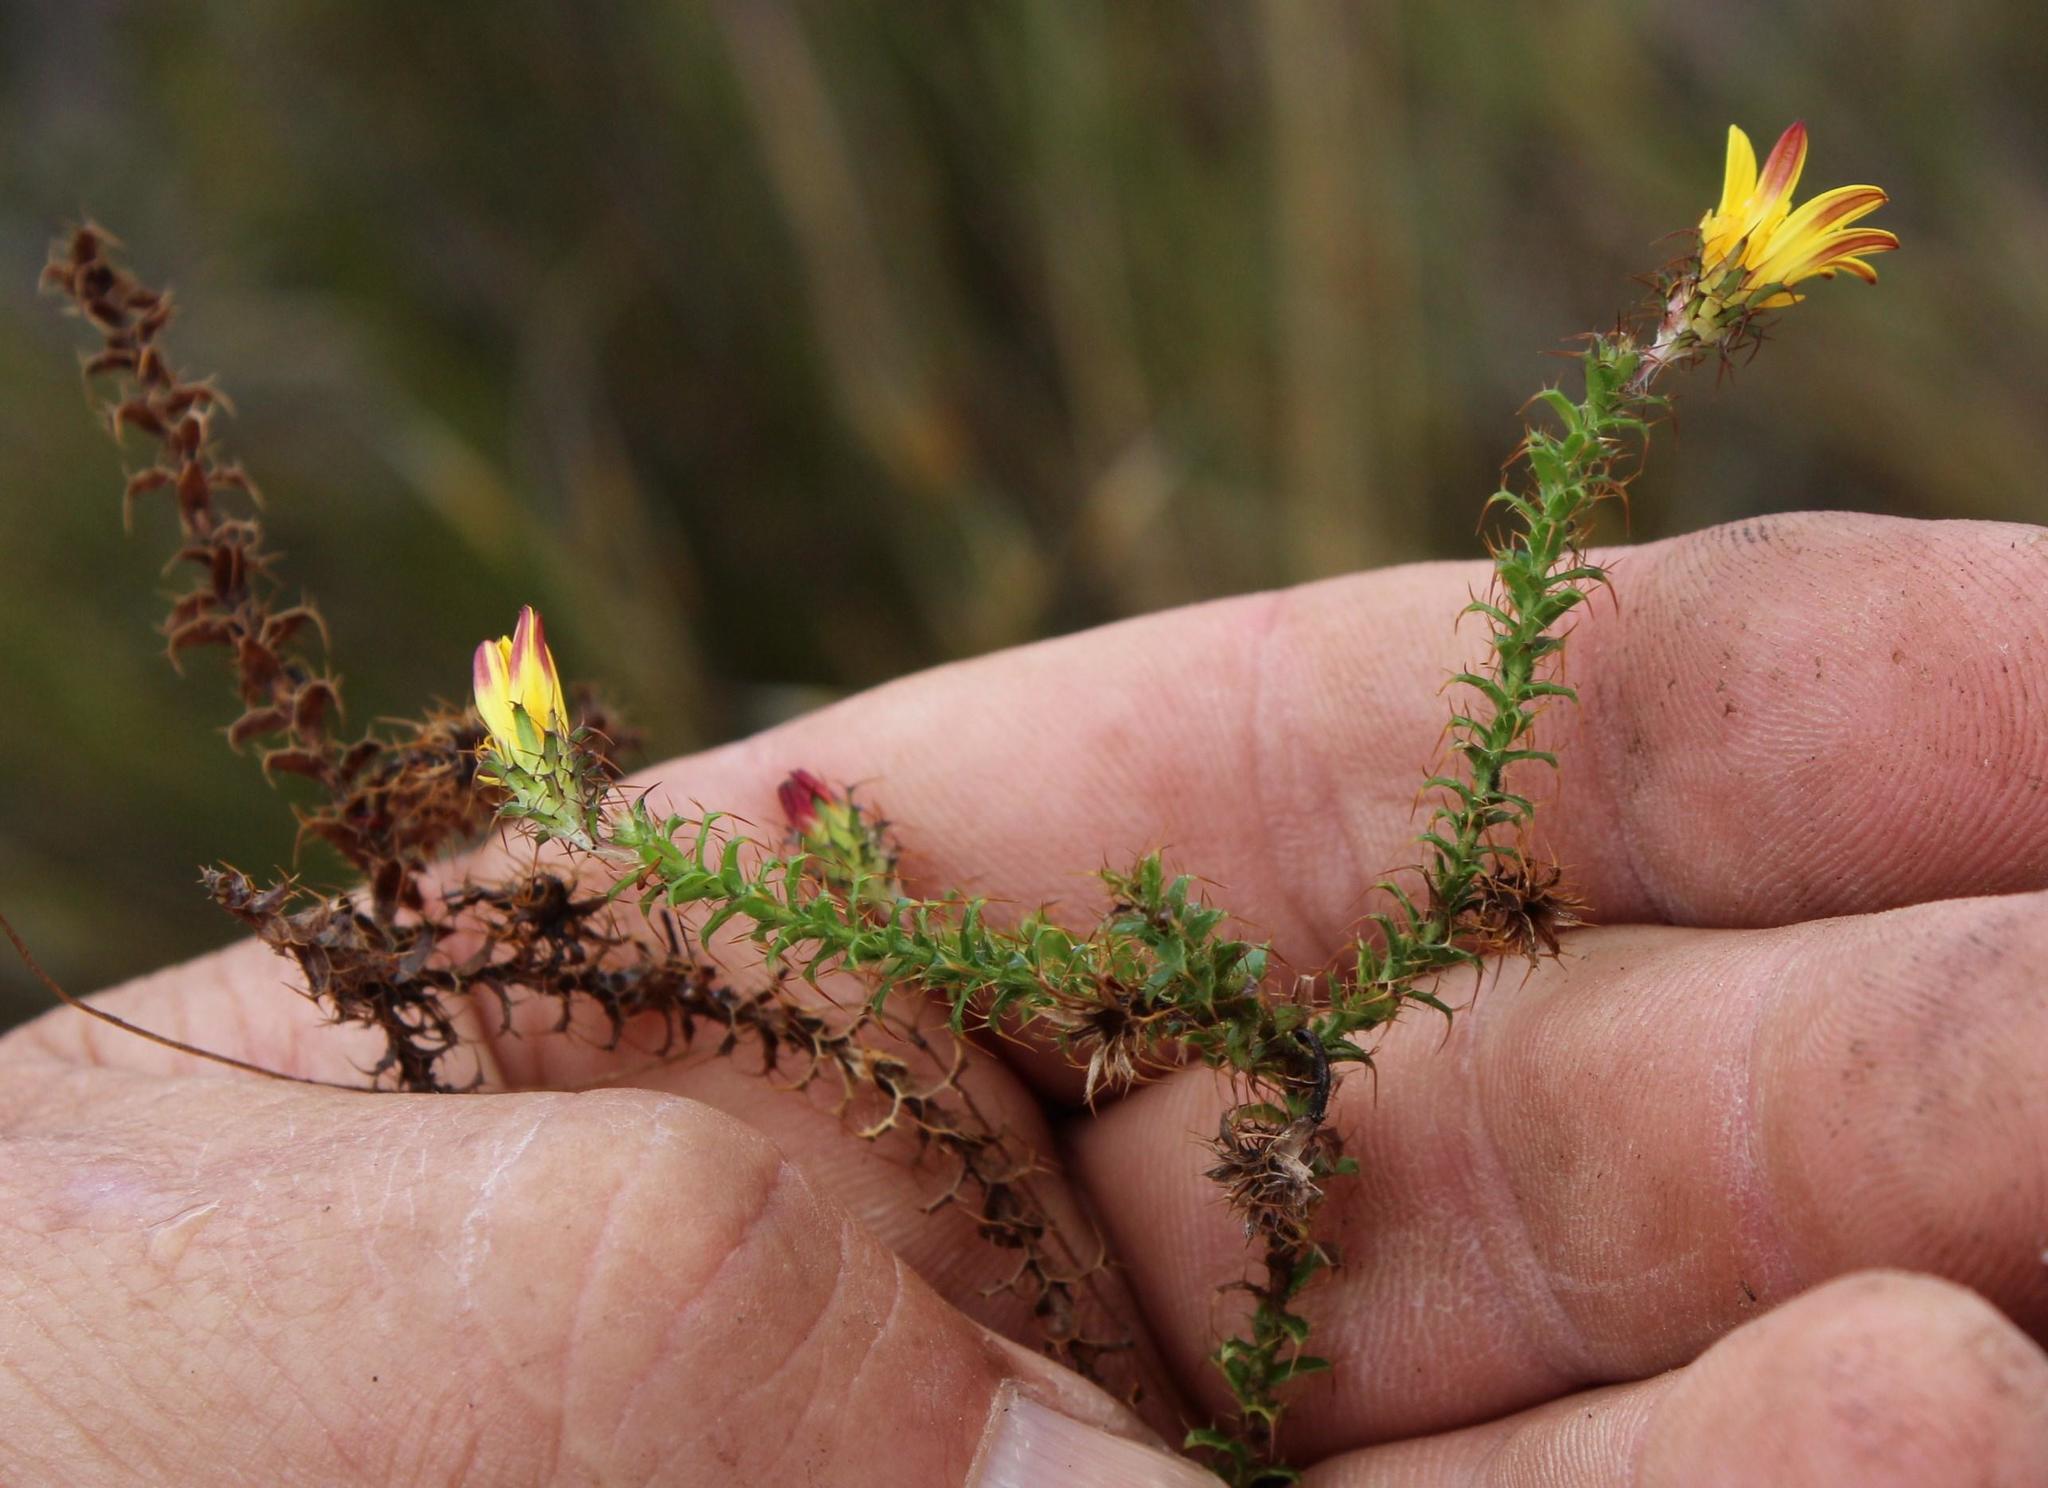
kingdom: Plantae
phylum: Tracheophyta
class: Magnoliopsida
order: Asterales
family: Asteraceae
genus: Cullumia
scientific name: Cullumia setosa
